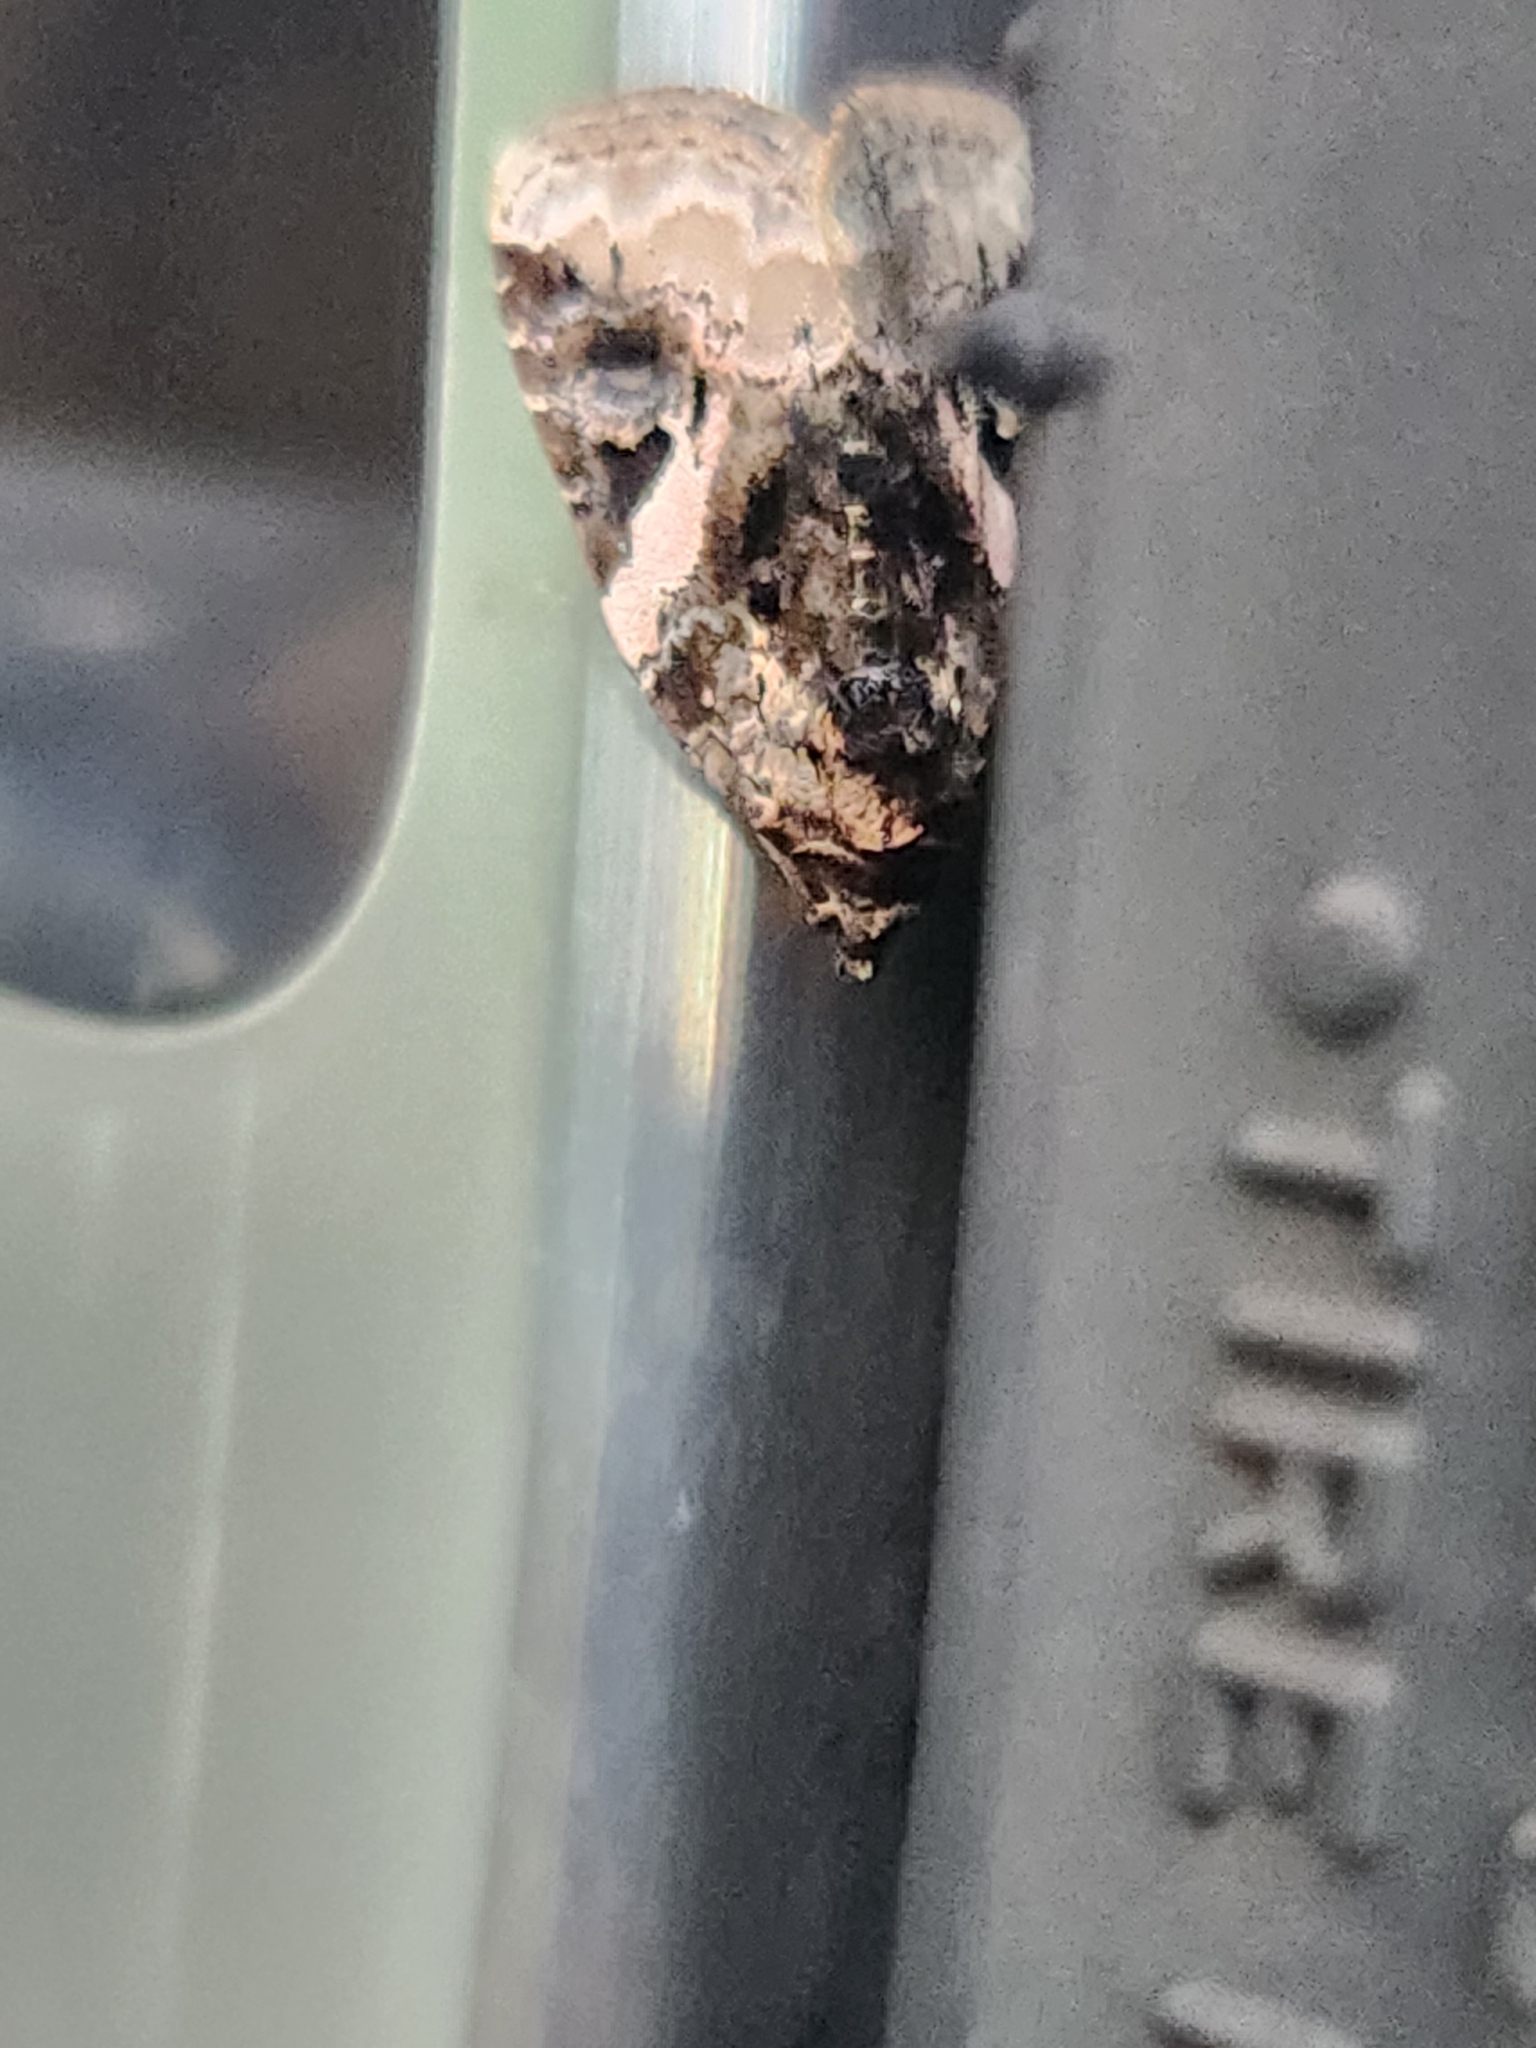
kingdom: Animalia
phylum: Arthropoda
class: Insecta
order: Lepidoptera
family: Noctuidae
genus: Pseudeustrotia
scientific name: Pseudeustrotia carneola
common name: Pink-barred lithacodia moth
